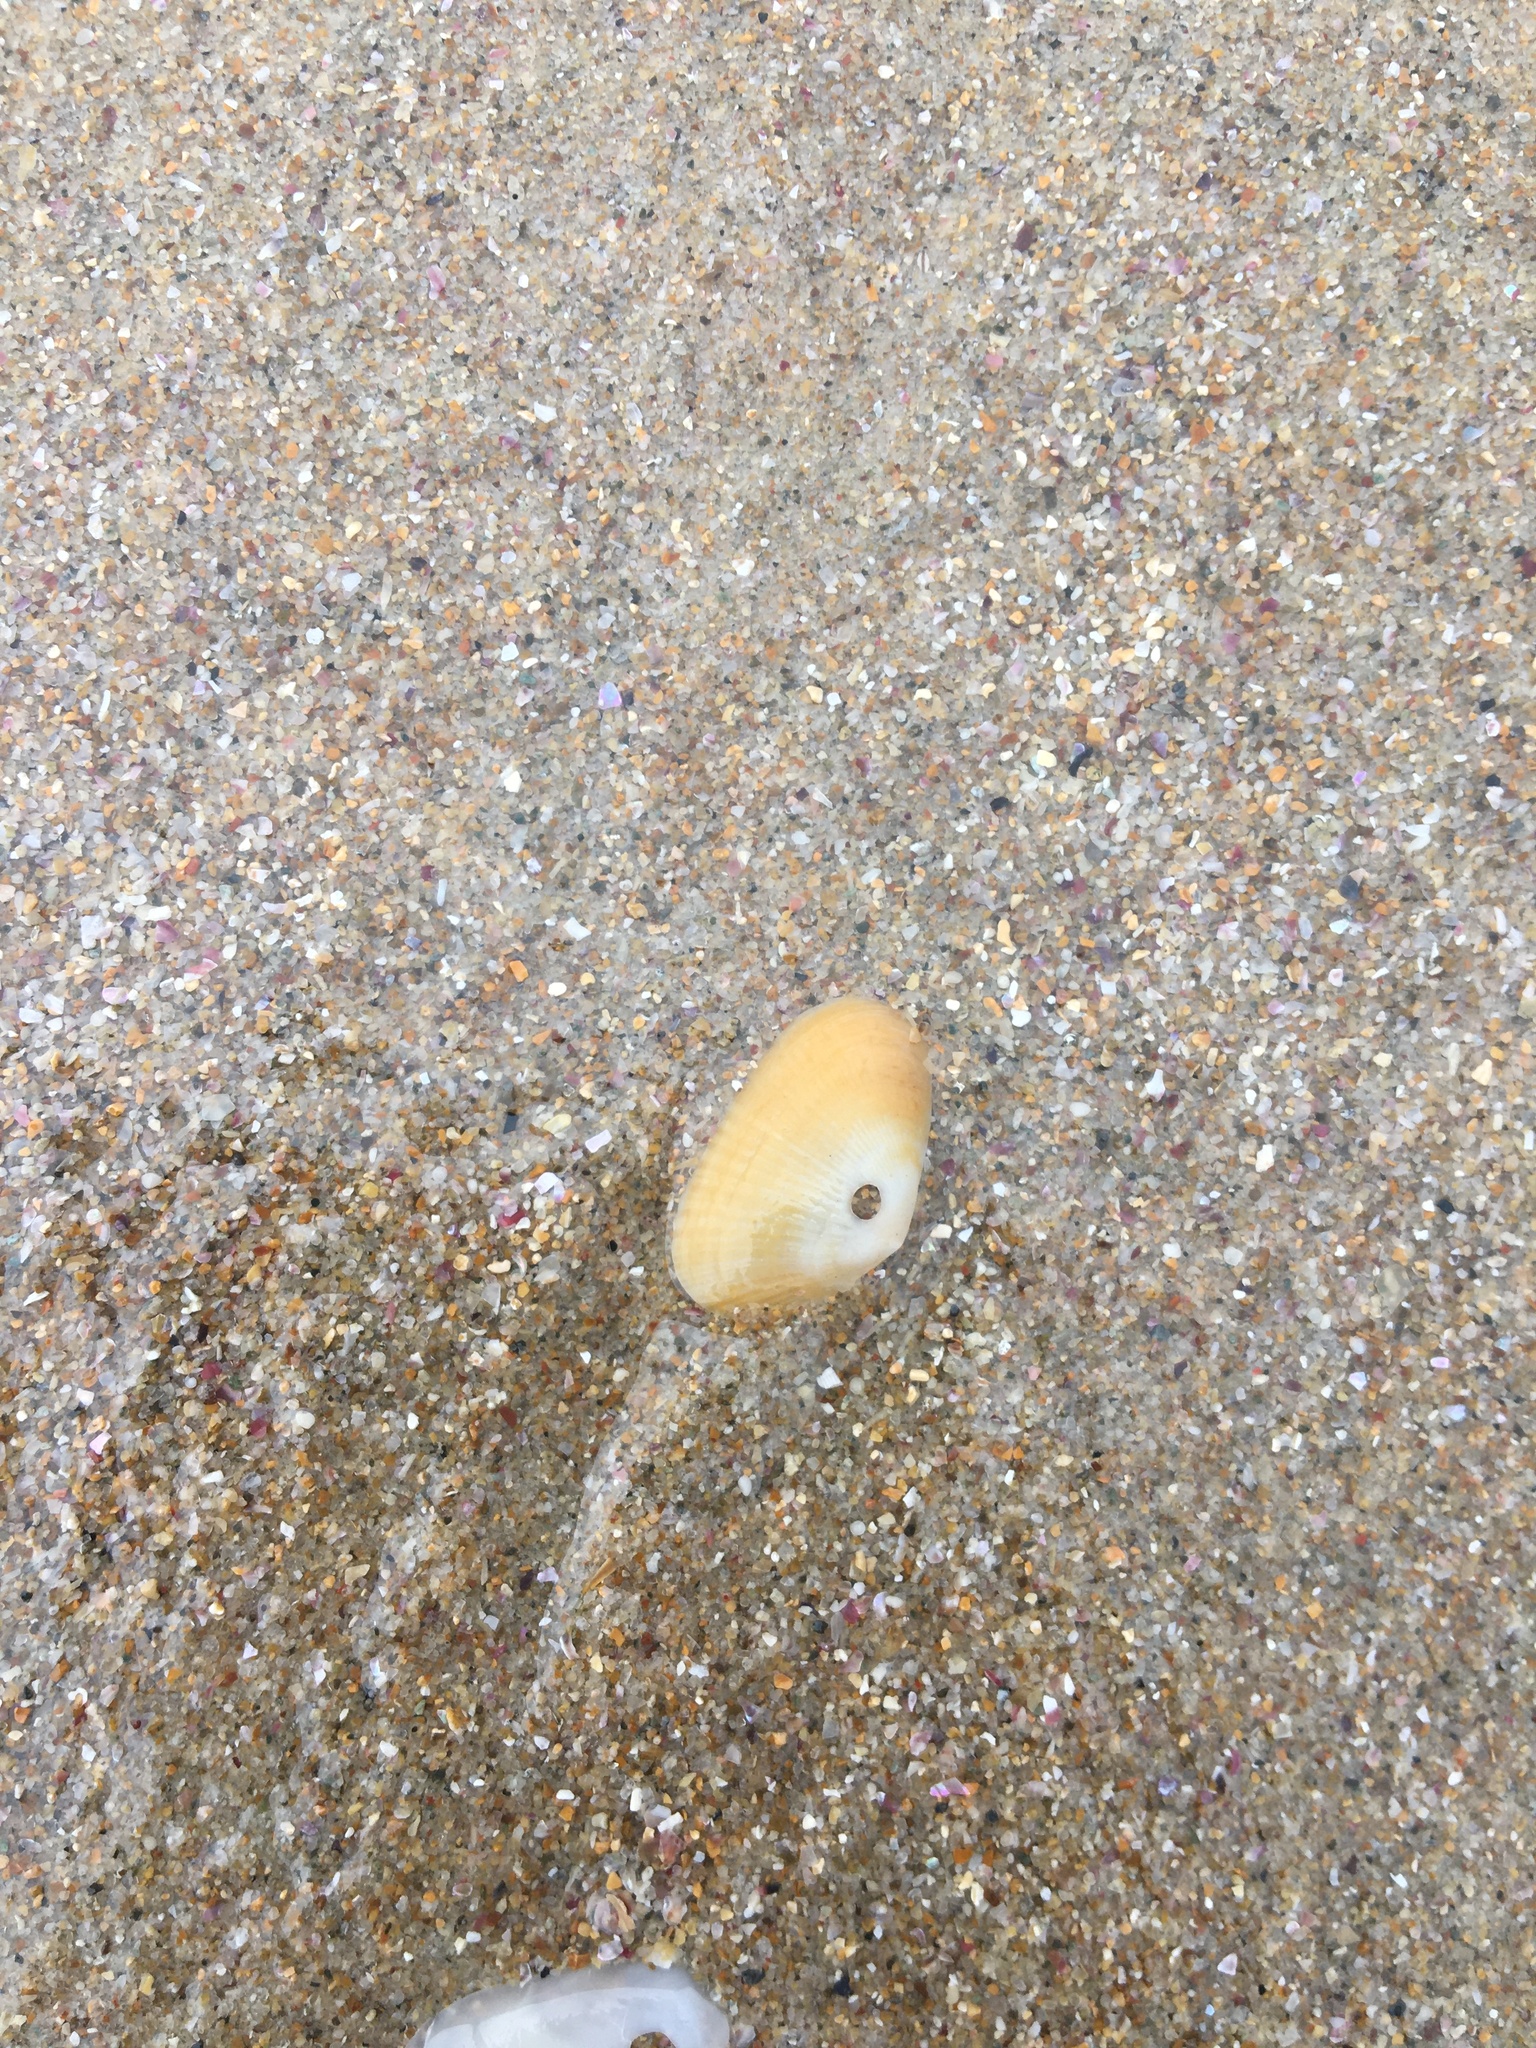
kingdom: Animalia
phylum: Mollusca
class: Bivalvia
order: Venerida
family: Hemidonacidae
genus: Hemidonax
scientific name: Hemidonax dactylus
